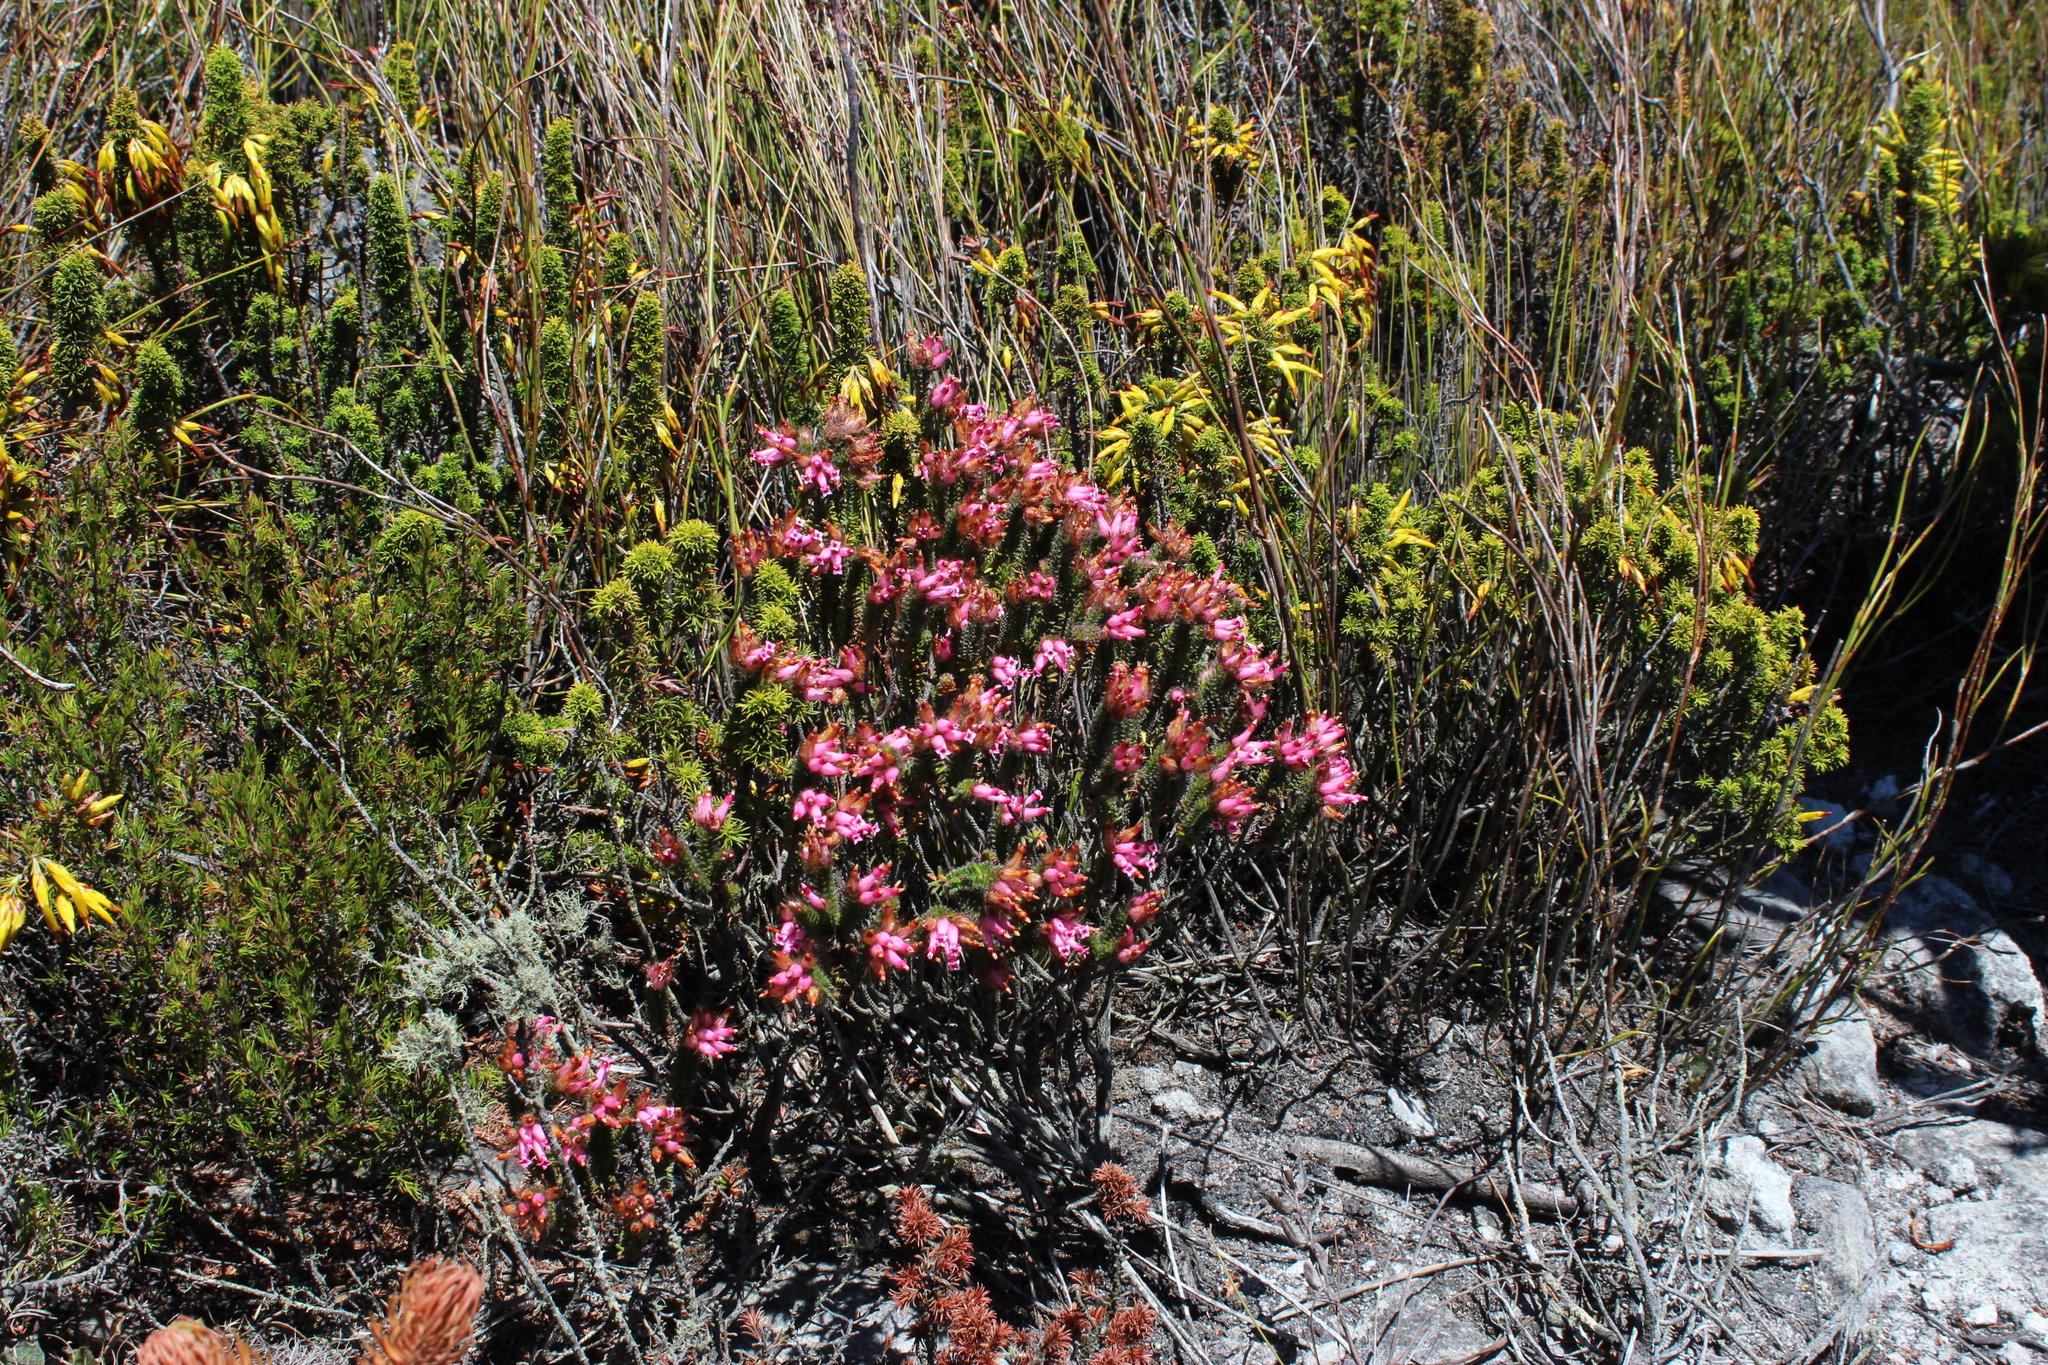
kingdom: Plantae
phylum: Tracheophyta
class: Magnoliopsida
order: Ericales
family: Ericaceae
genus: Erica
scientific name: Erica gysbertii
